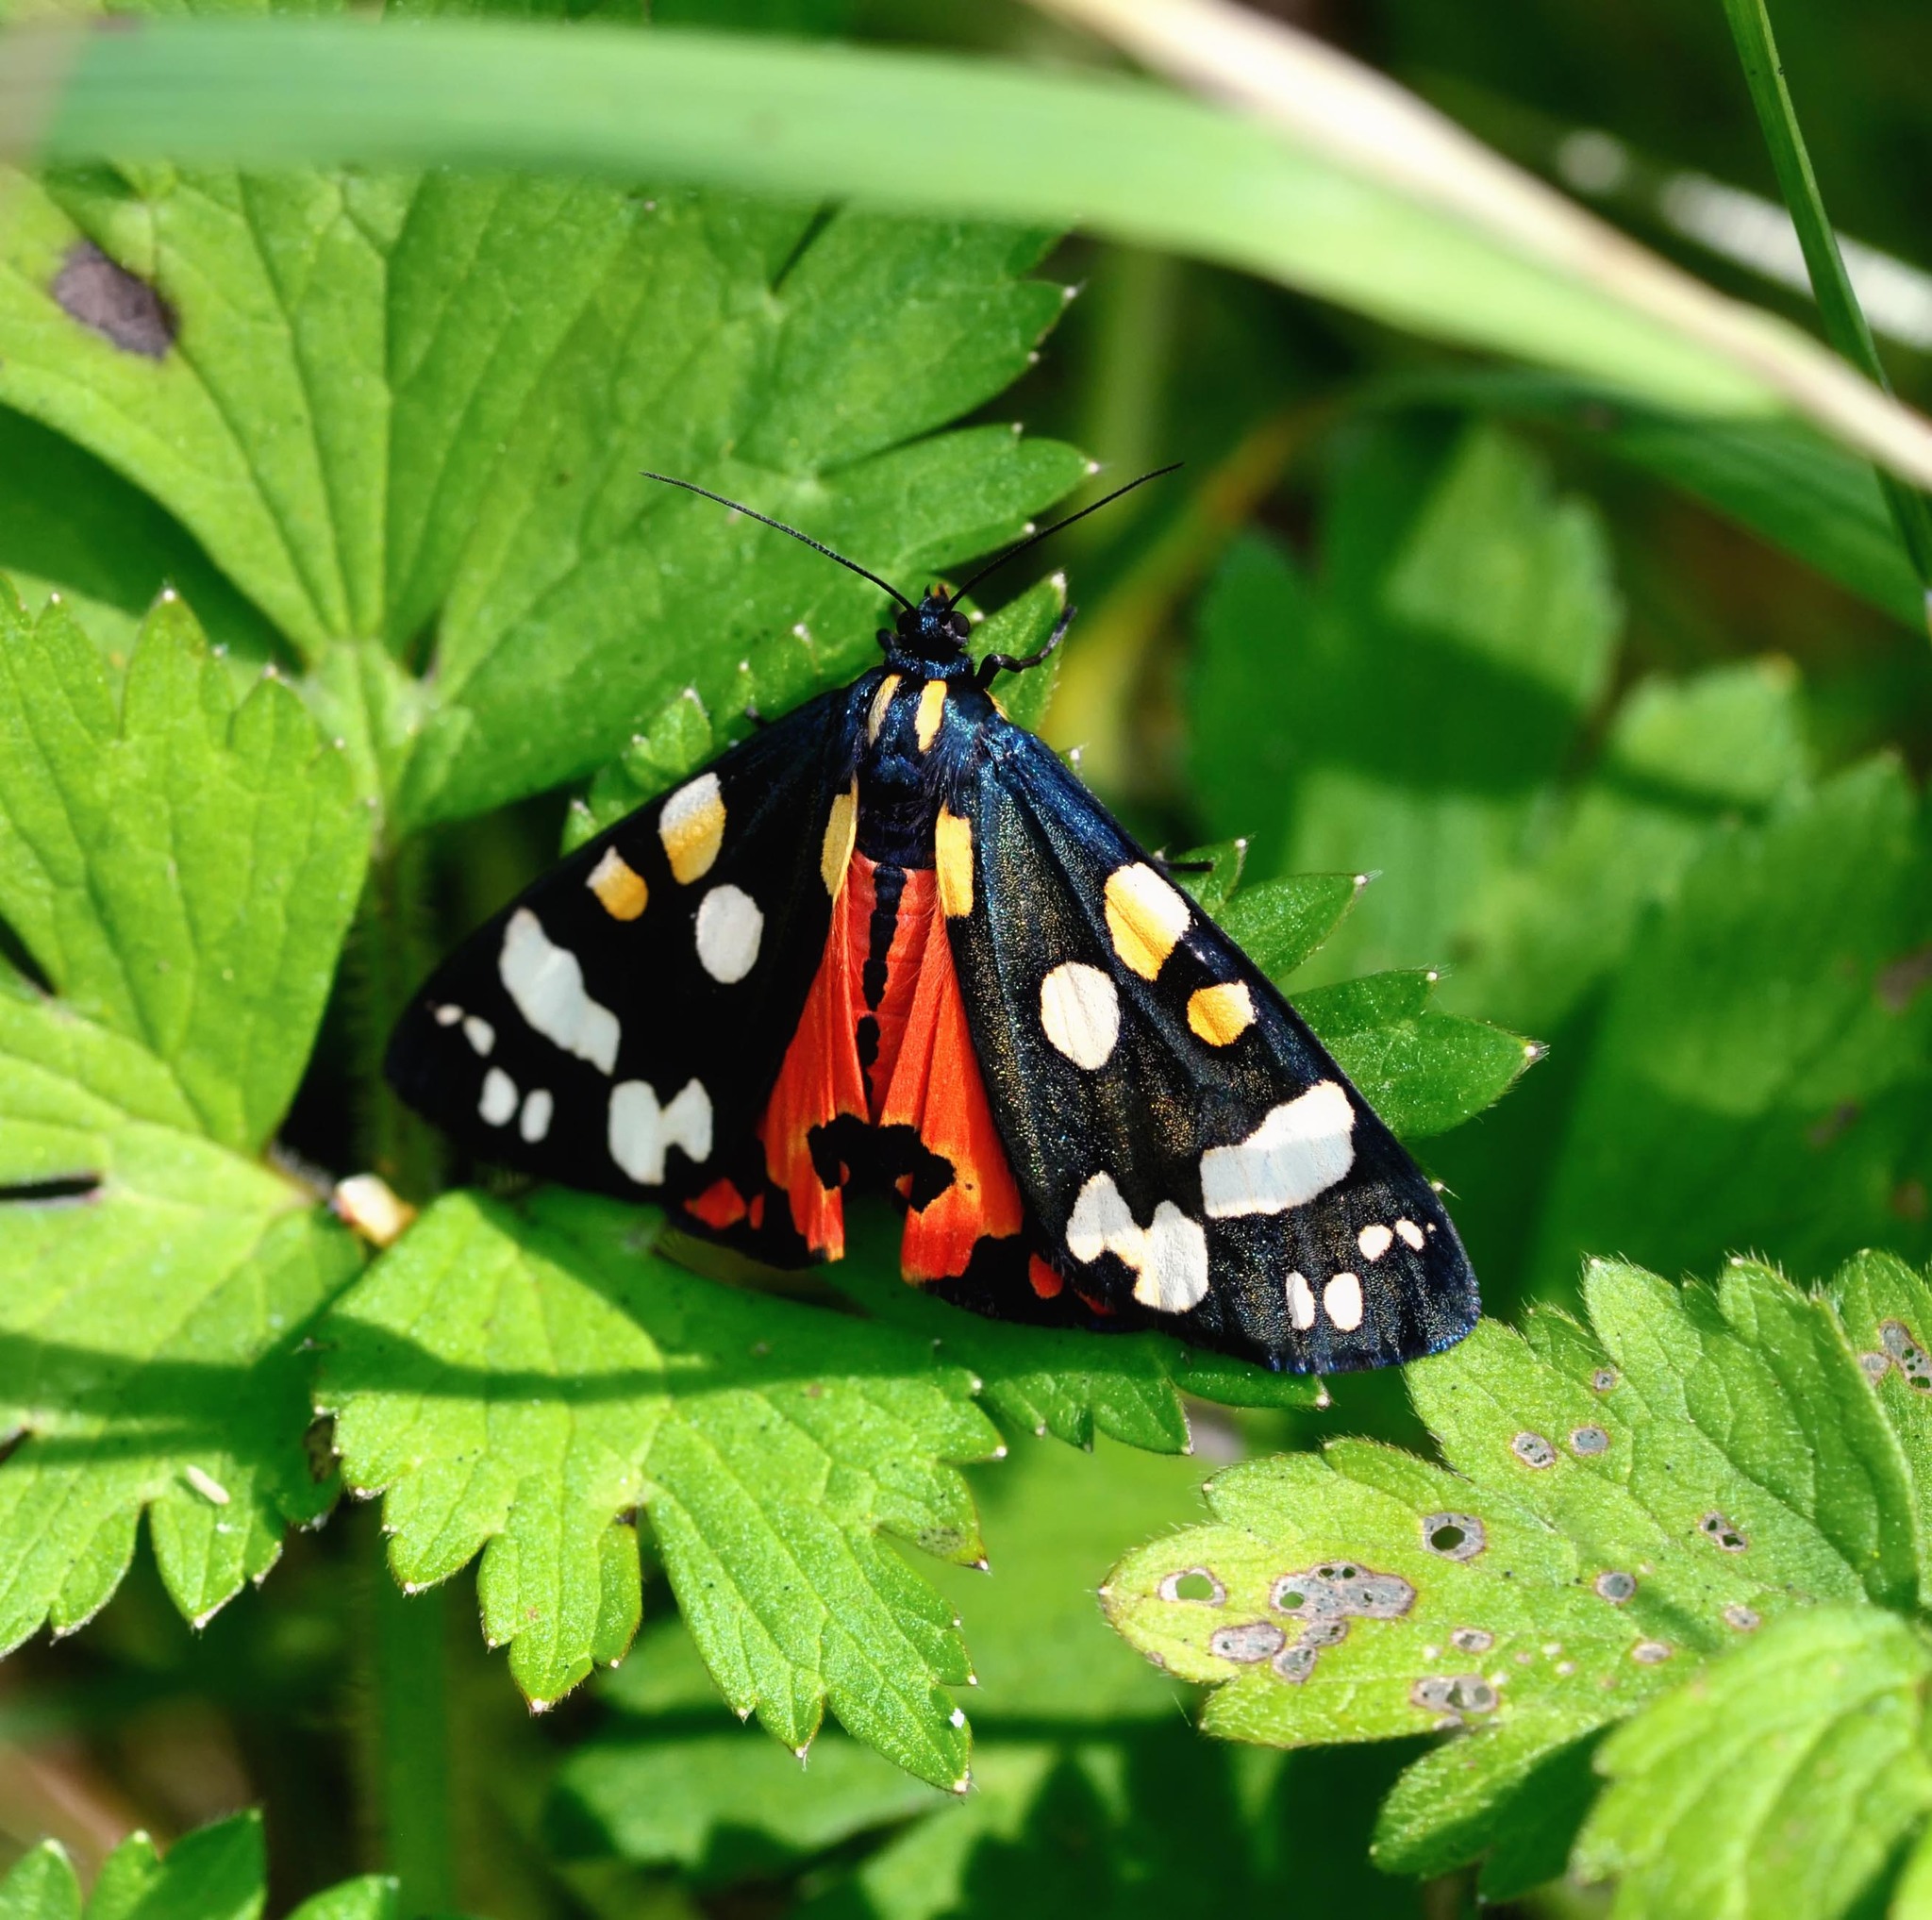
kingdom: Animalia
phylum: Arthropoda
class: Insecta
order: Lepidoptera
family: Erebidae
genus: Callimorpha
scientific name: Callimorpha dominula
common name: Scarlet tiger
